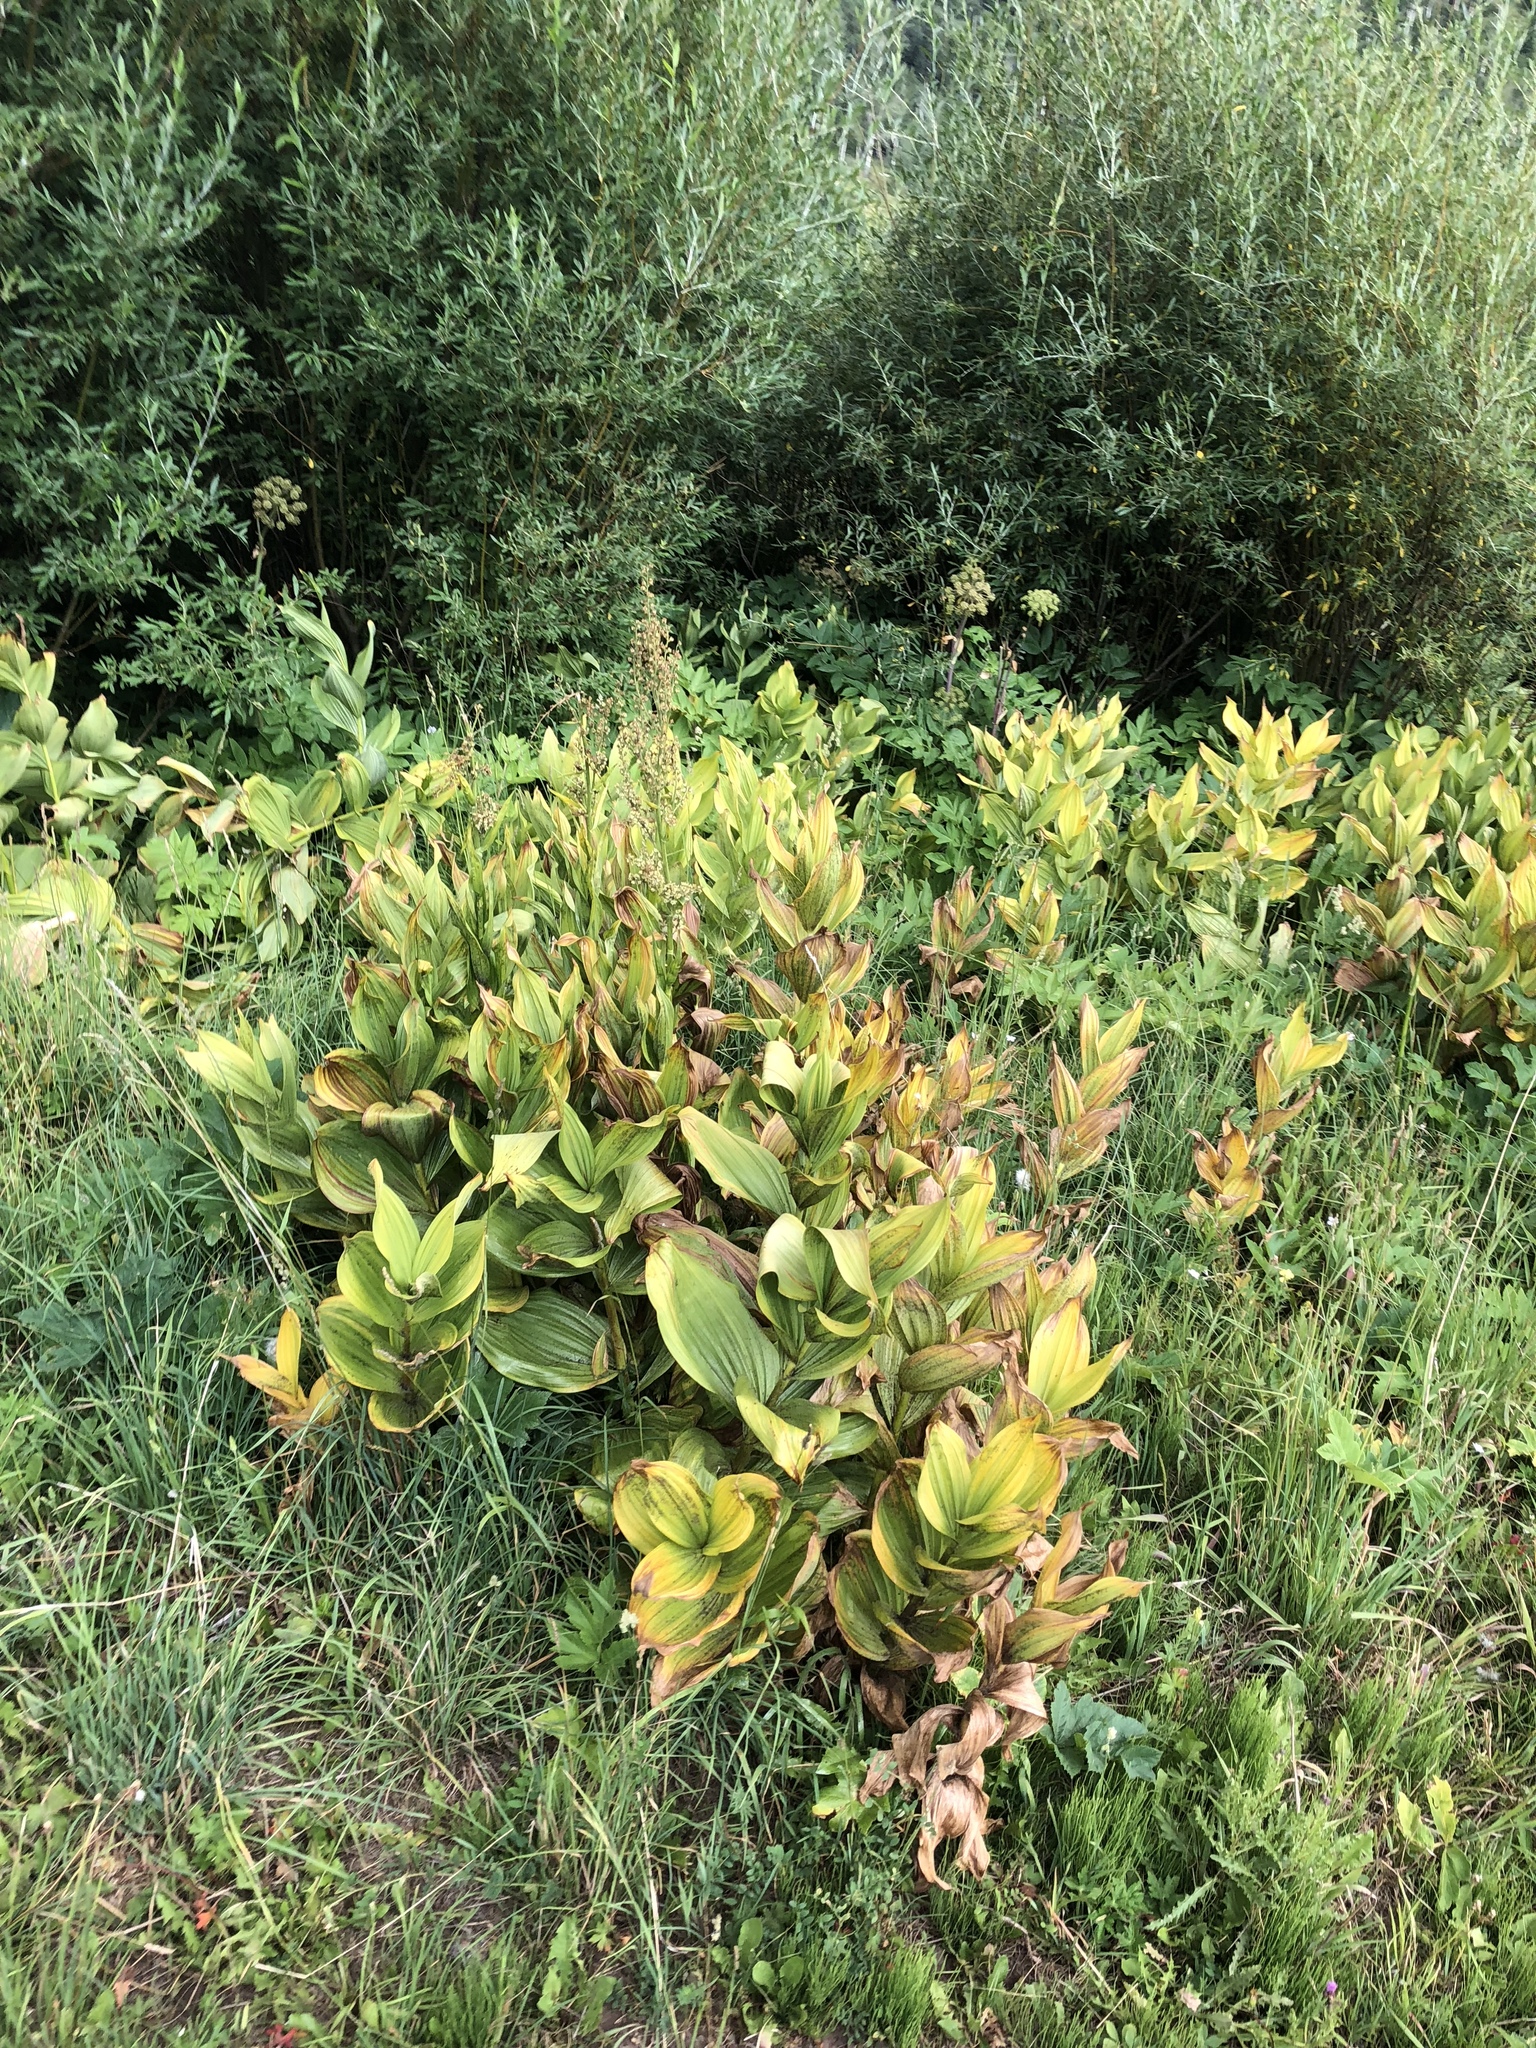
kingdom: Plantae
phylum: Tracheophyta
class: Liliopsida
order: Liliales
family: Melanthiaceae
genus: Veratrum
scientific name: Veratrum californicum
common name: California veratrum
